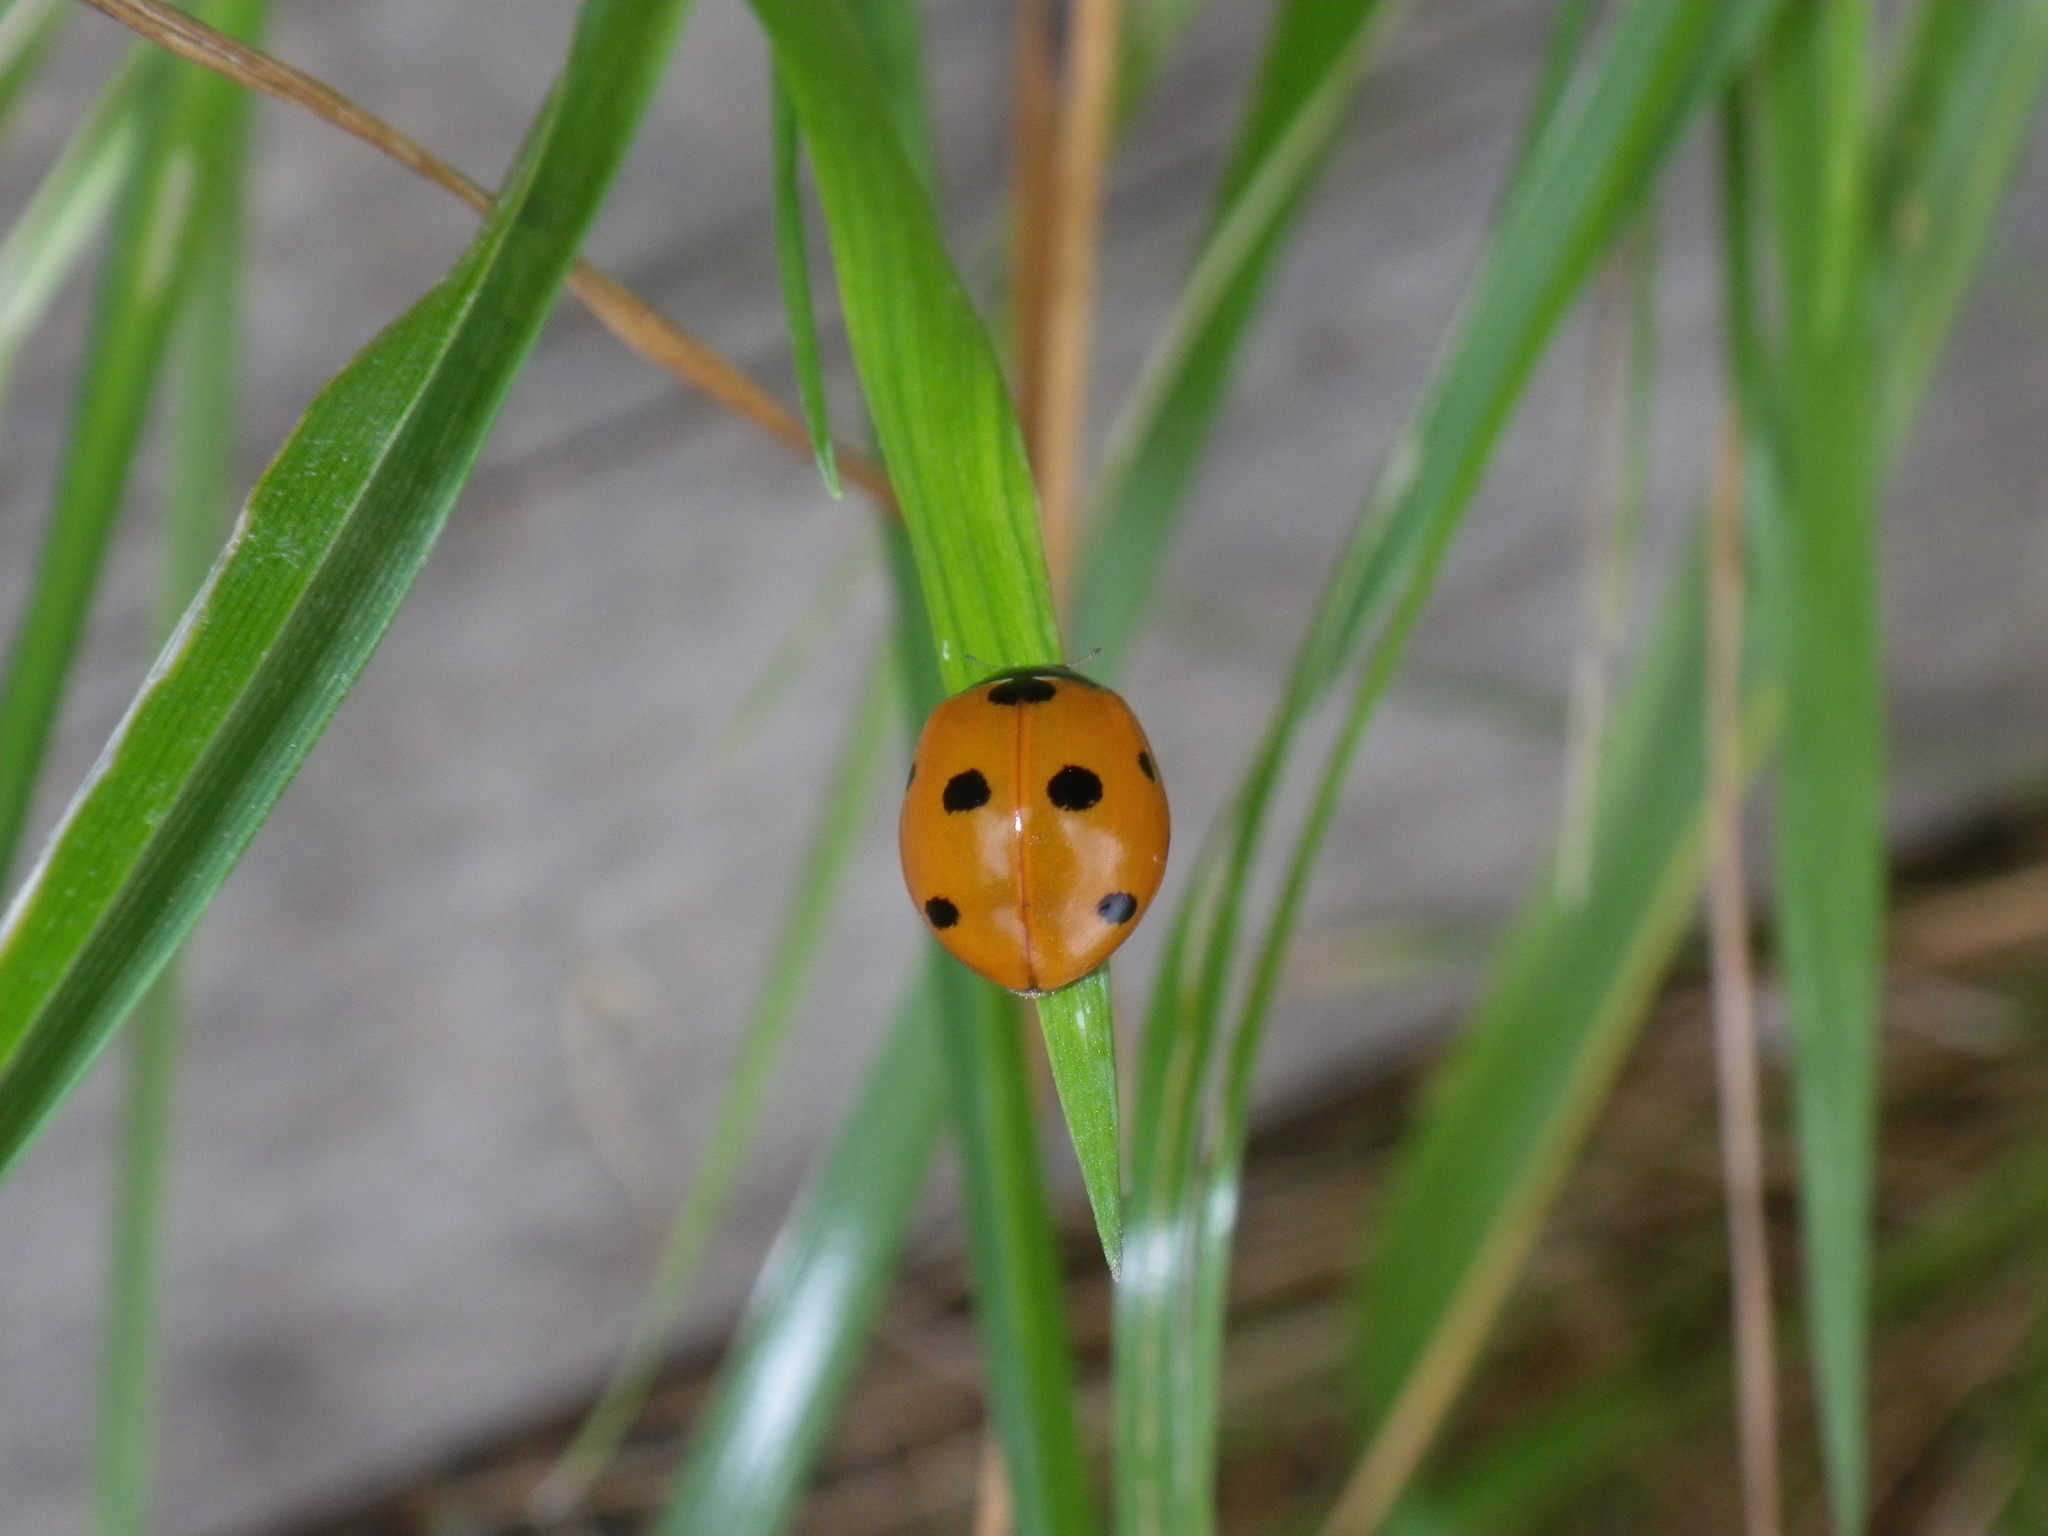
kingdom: Animalia
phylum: Arthropoda
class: Insecta
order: Coleoptera
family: Coccinellidae
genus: Coccinella
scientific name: Coccinella septempunctata
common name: Sevenspotted lady beetle
